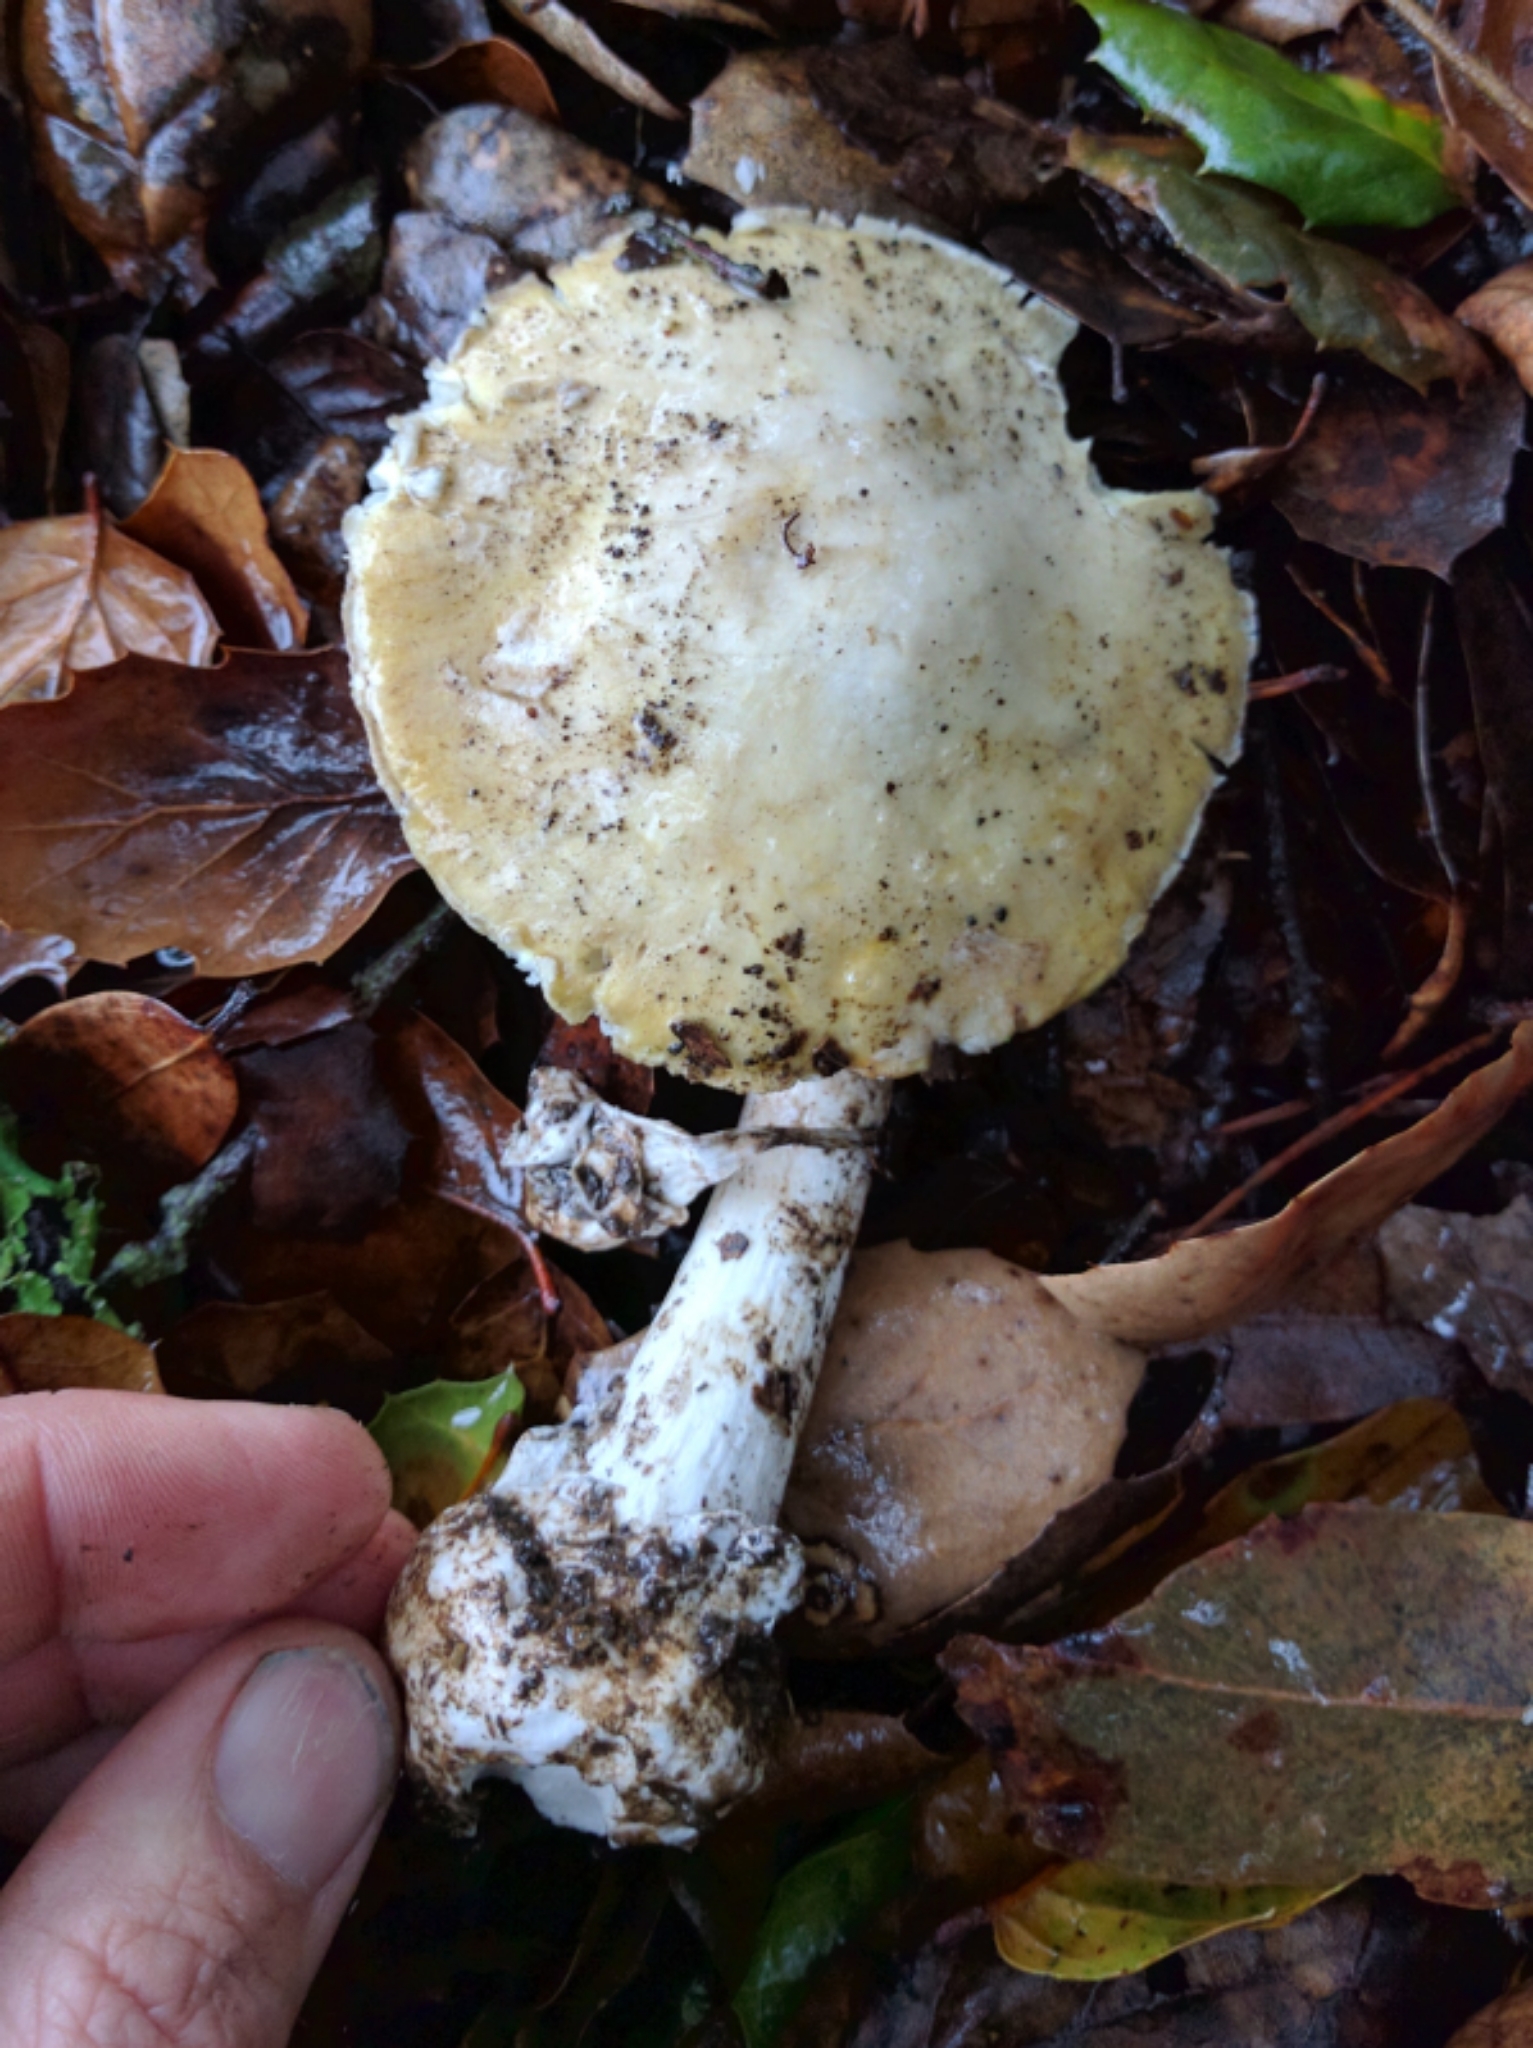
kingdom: Fungi
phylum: Basidiomycota
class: Agaricomycetes
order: Agaricales
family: Amanitaceae
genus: Amanita
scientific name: Amanita phalloides
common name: Death cap
